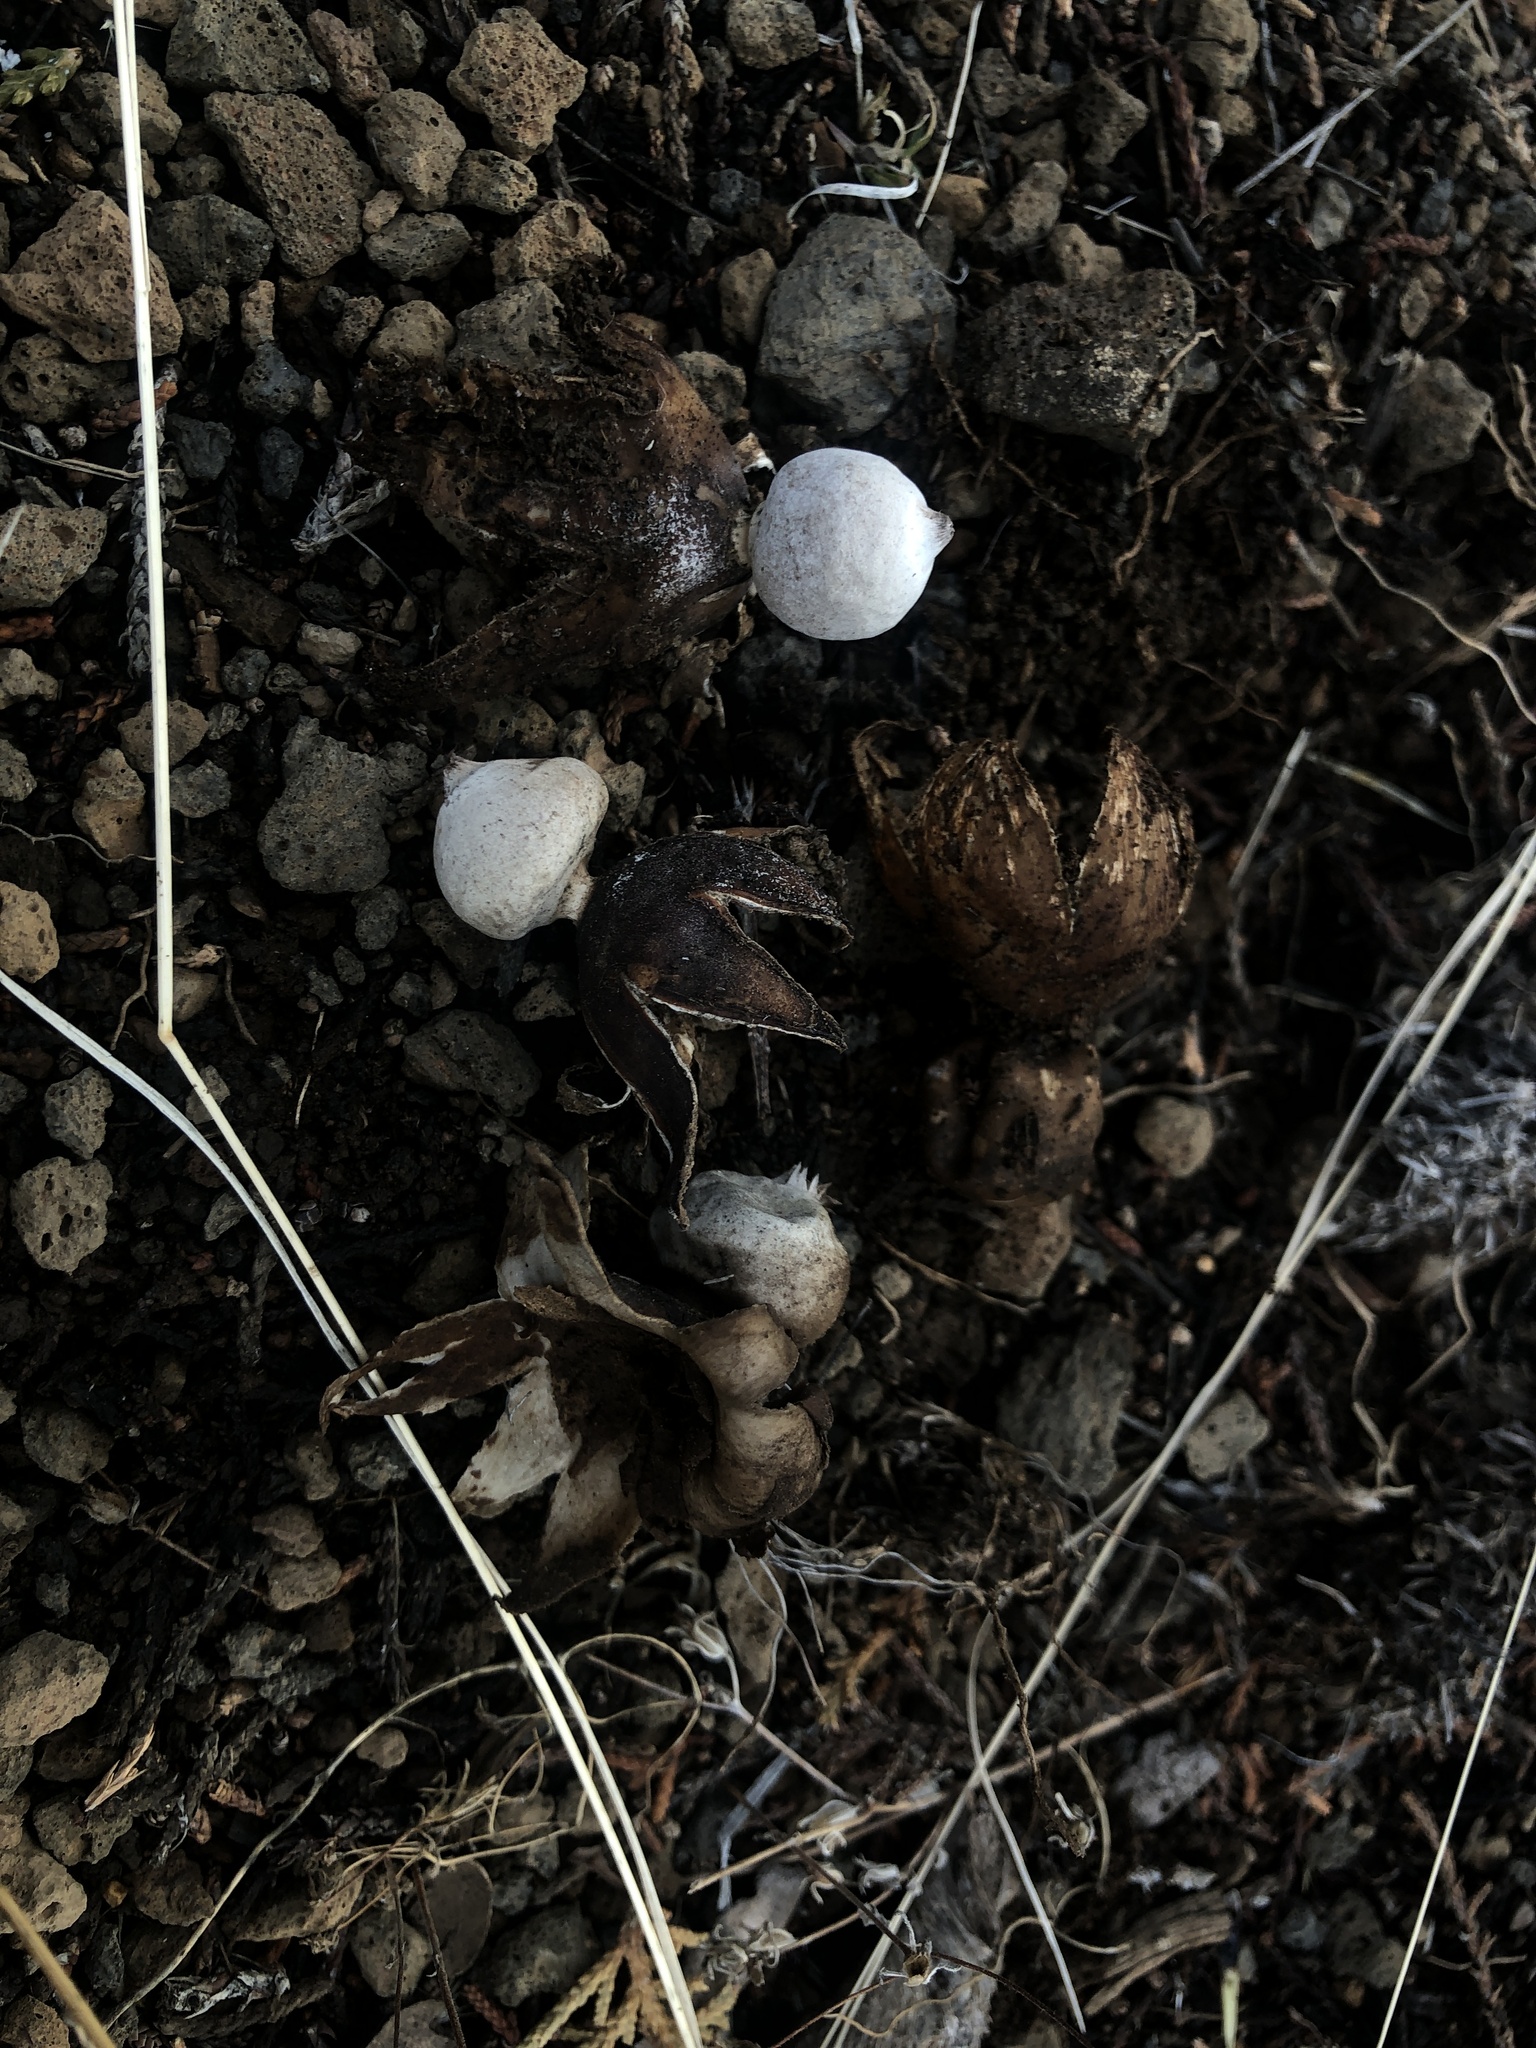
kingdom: Fungi
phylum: Basidiomycota
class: Agaricomycetes
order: Geastrales
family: Geastraceae
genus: Geastrum
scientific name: Geastrum fornicatum
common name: Arched earthstar
